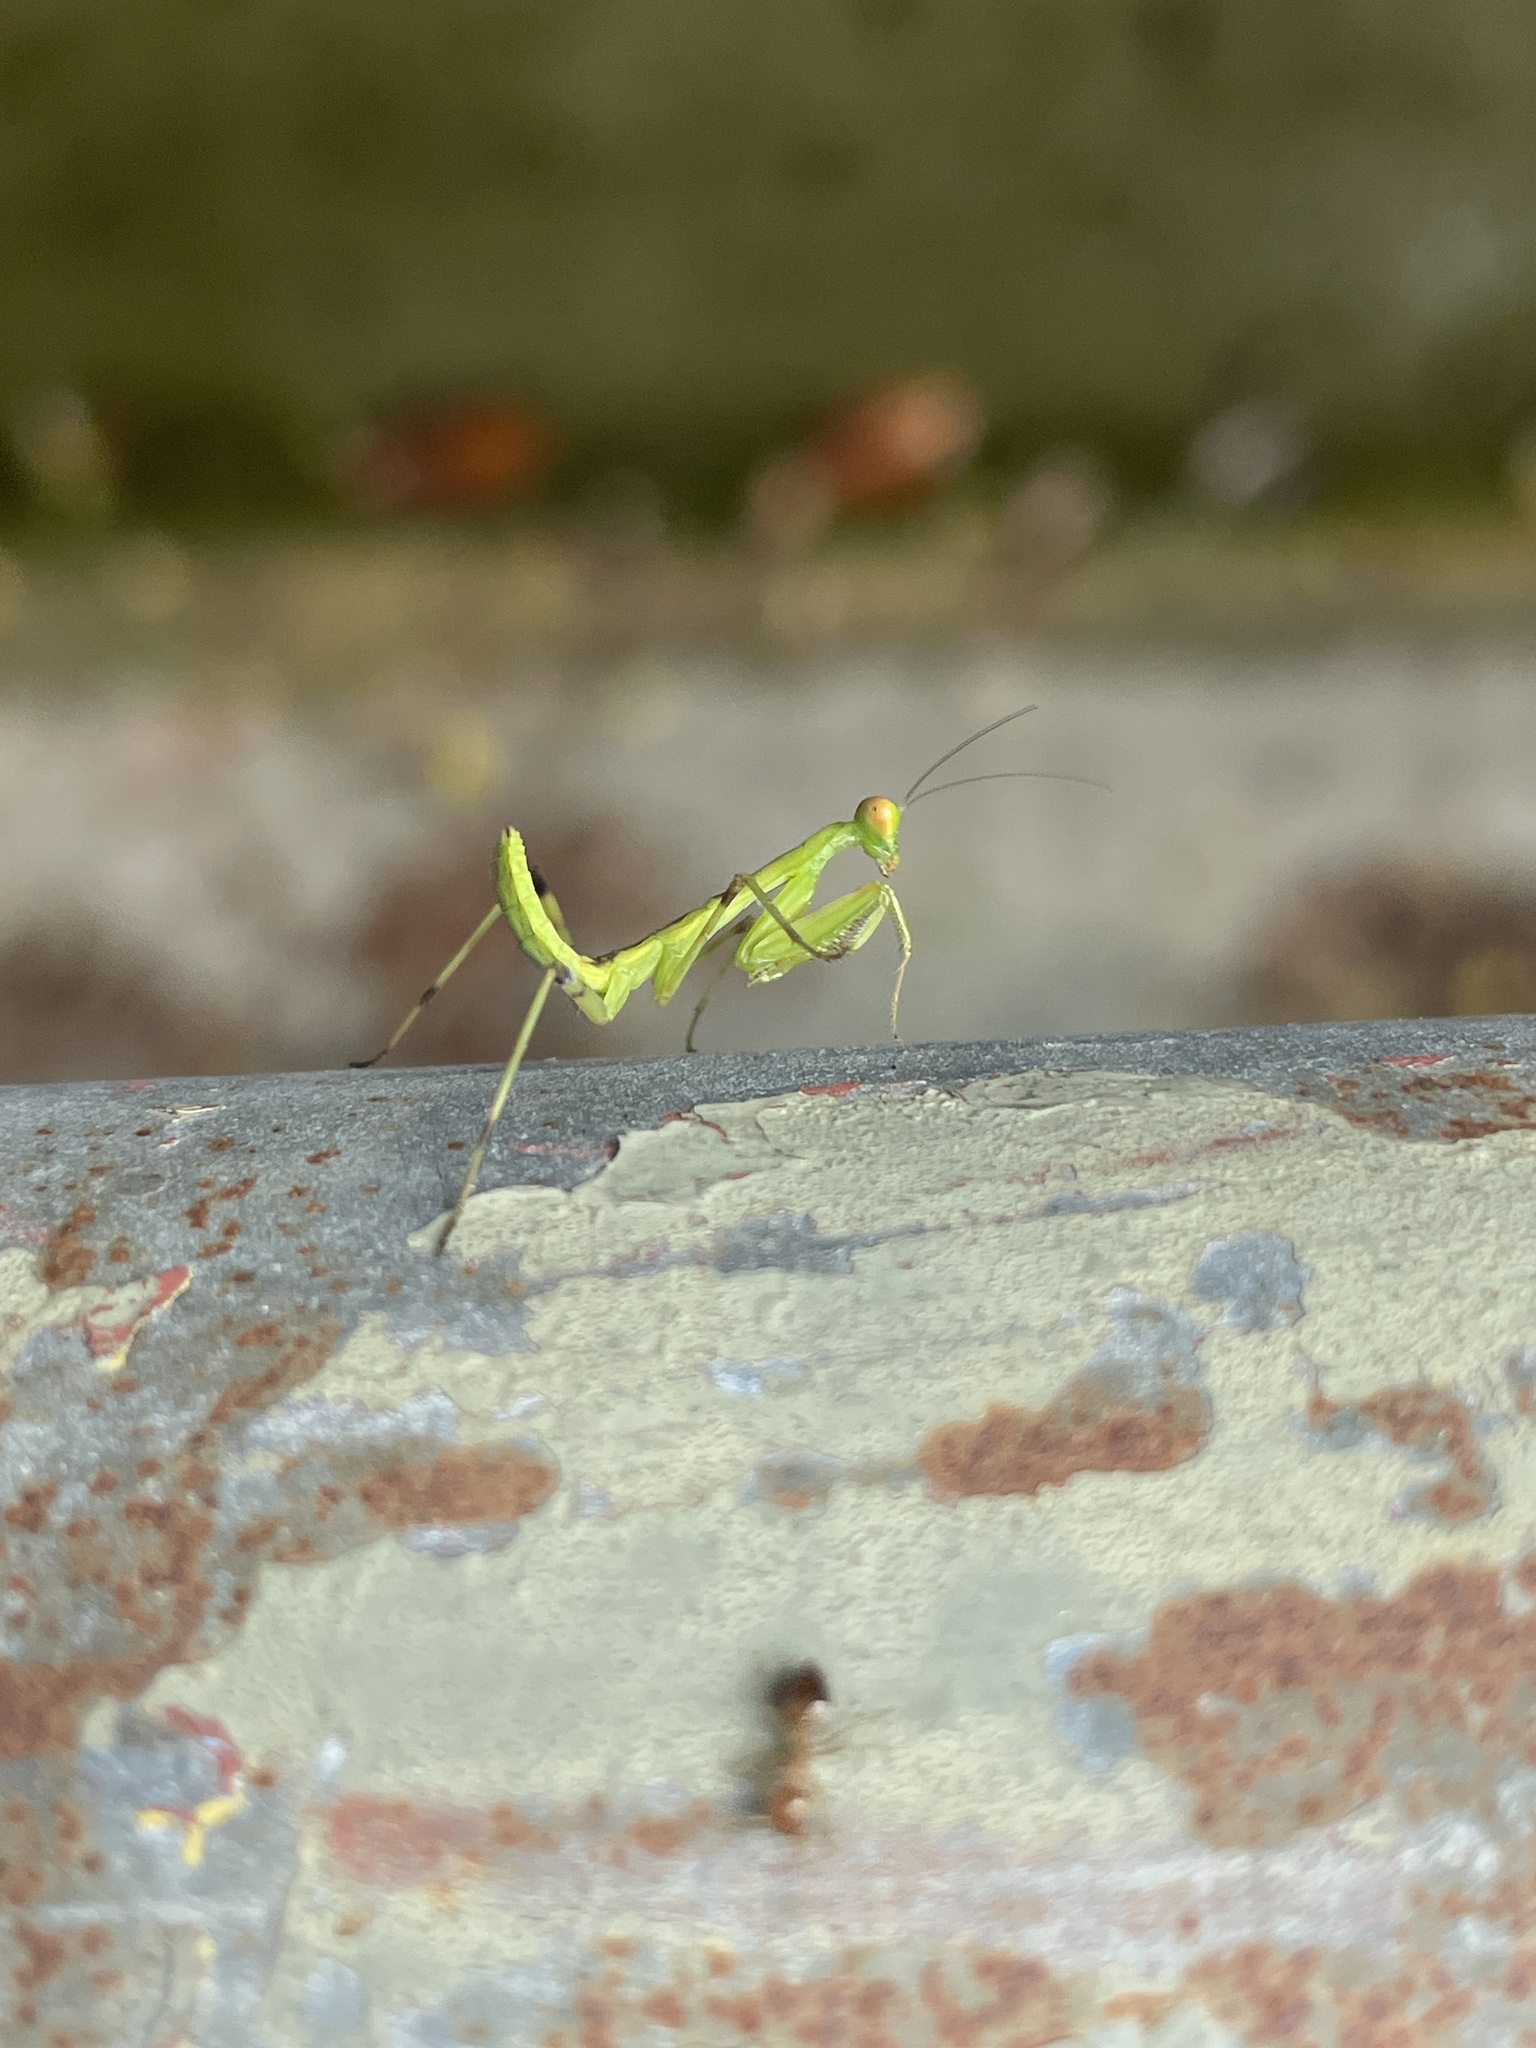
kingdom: Animalia
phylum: Arthropoda
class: Insecta
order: Mantodea
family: Mantidae
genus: Hierodula
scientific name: Hierodula patellifera
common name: Asian mantis
